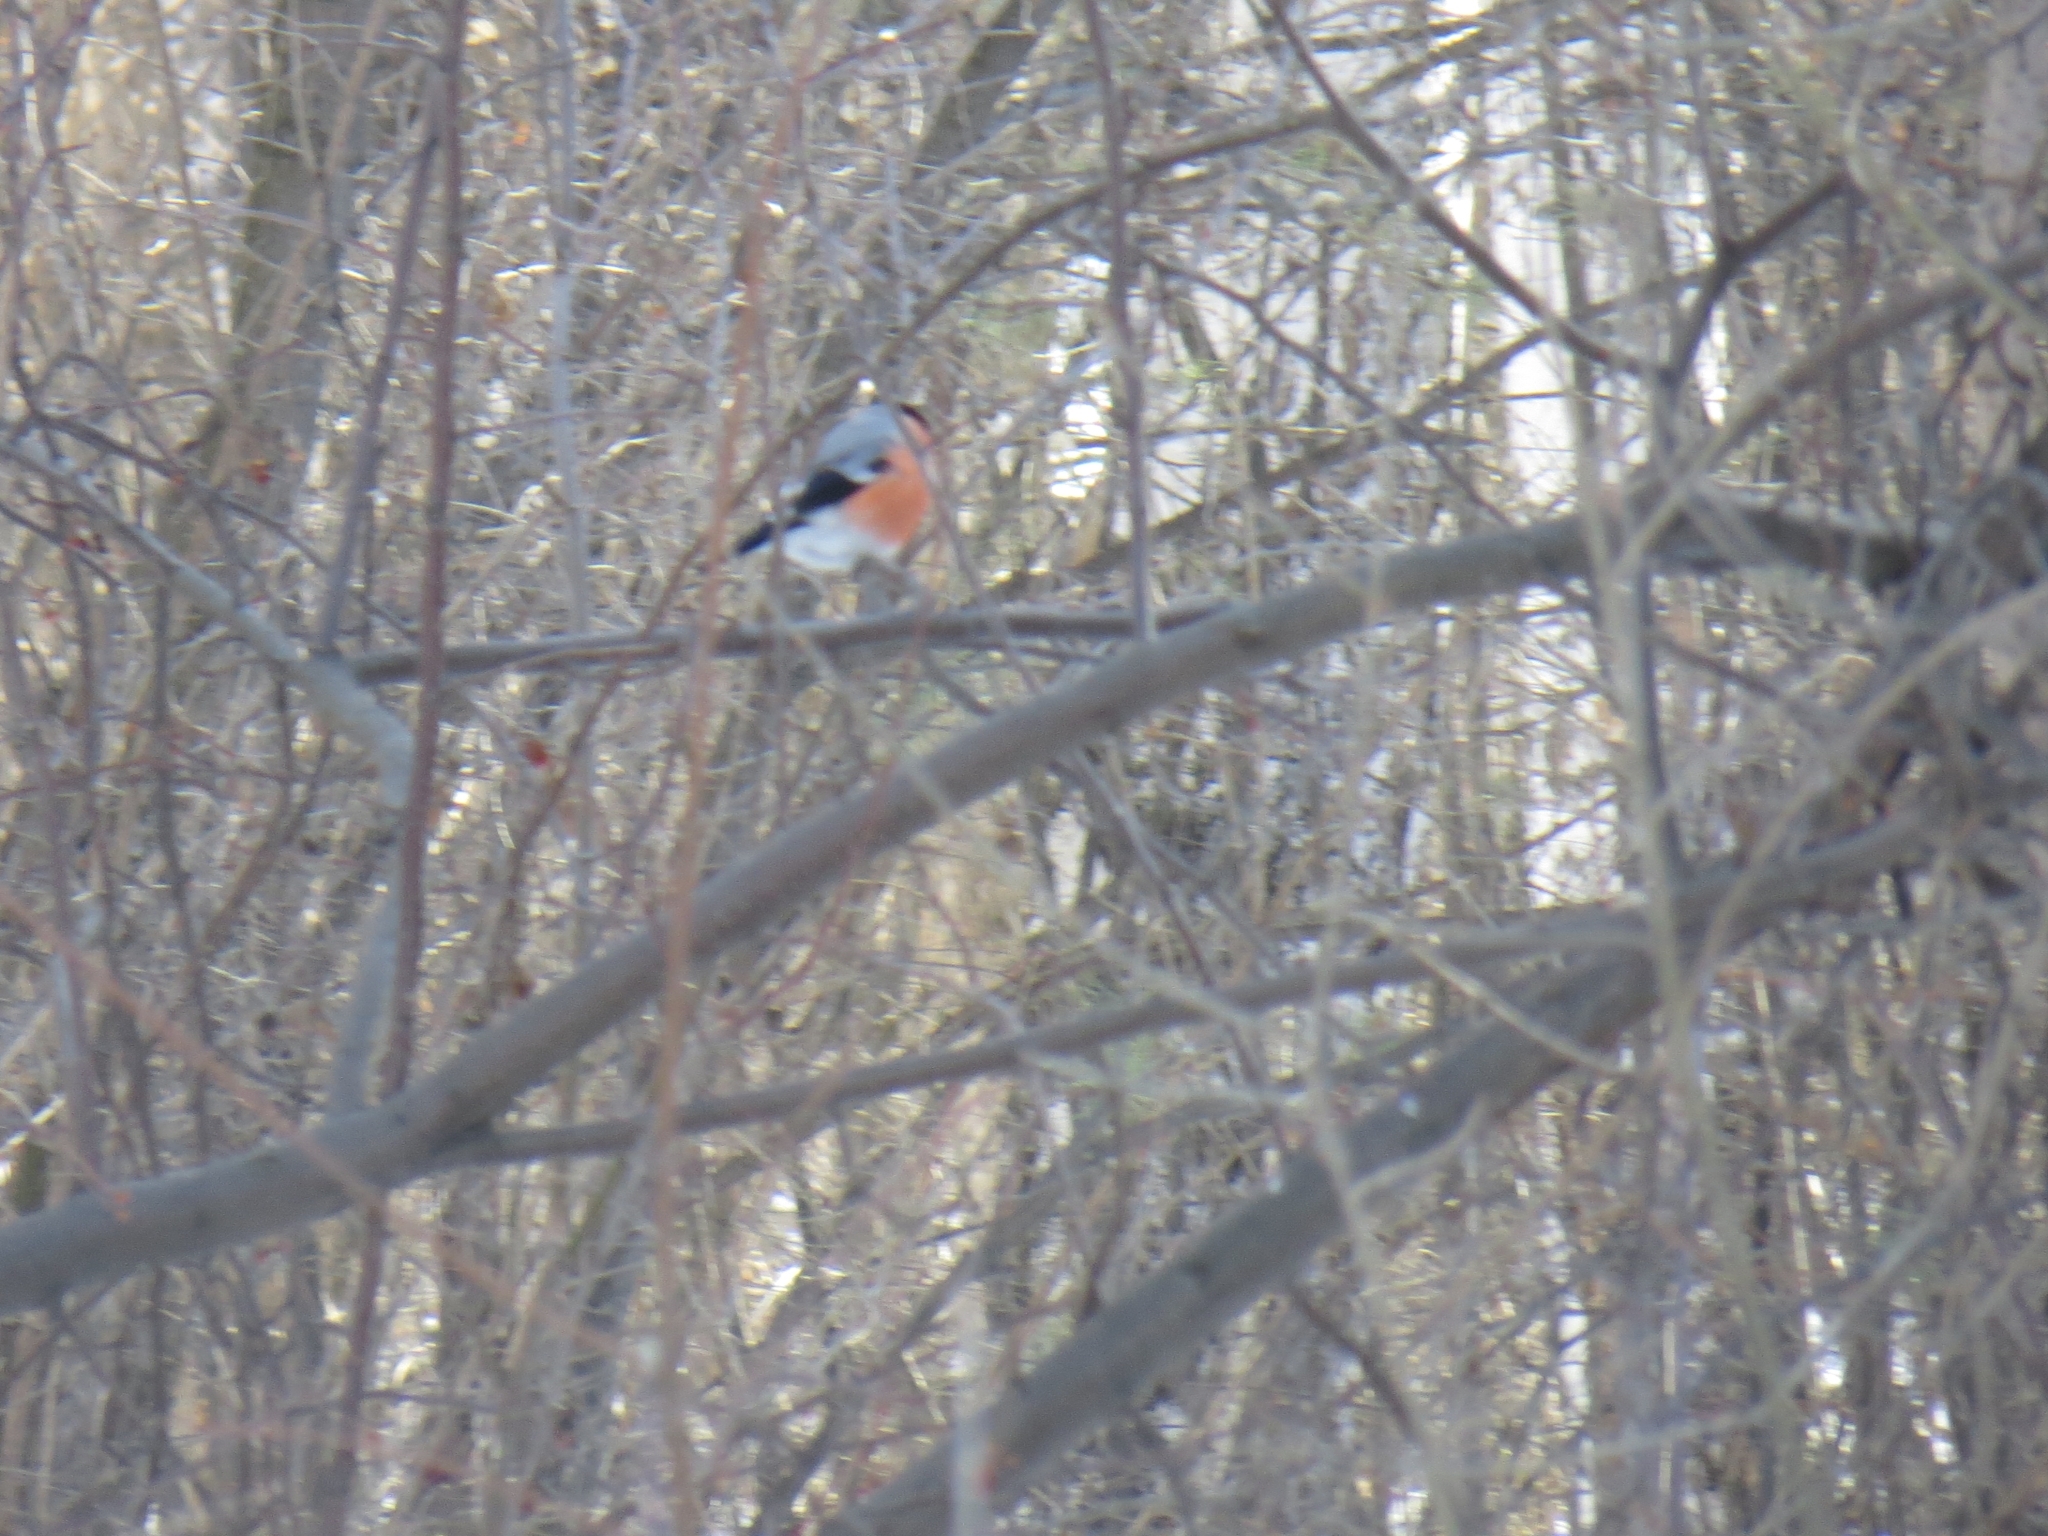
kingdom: Animalia
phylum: Chordata
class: Aves
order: Passeriformes
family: Fringillidae
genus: Pyrrhula
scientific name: Pyrrhula pyrrhula
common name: Eurasian bullfinch
